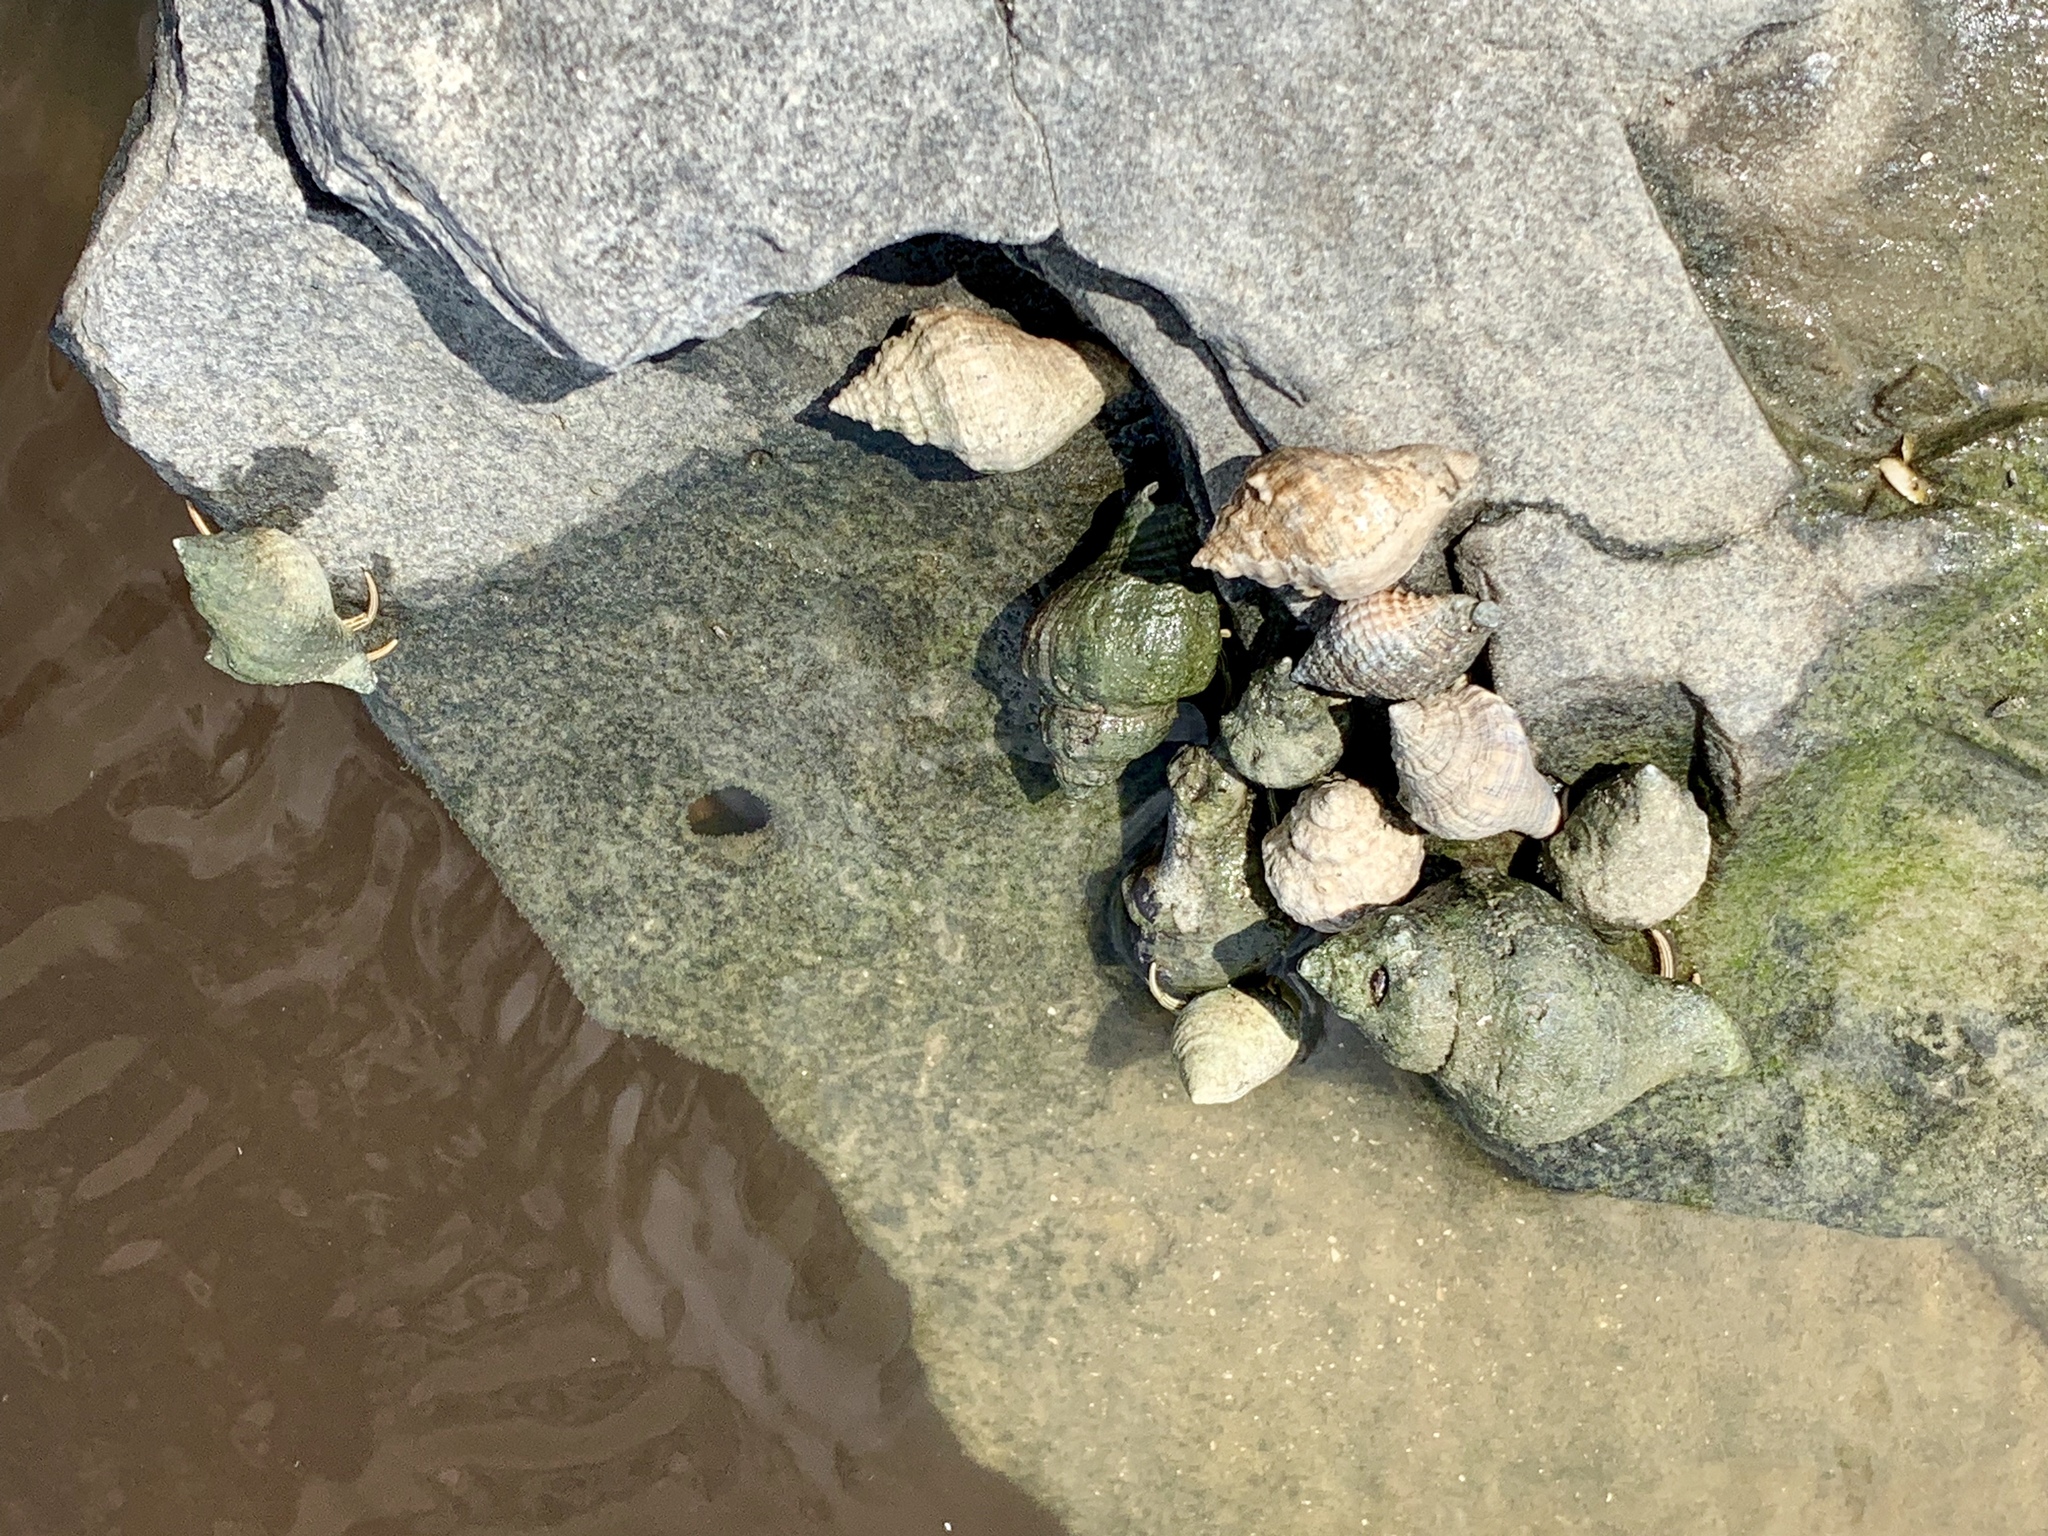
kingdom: Animalia
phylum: Arthropoda
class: Malacostraca
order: Decapoda
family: Diogenidae
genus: Clibanarius
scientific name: Clibanarius vittatus
